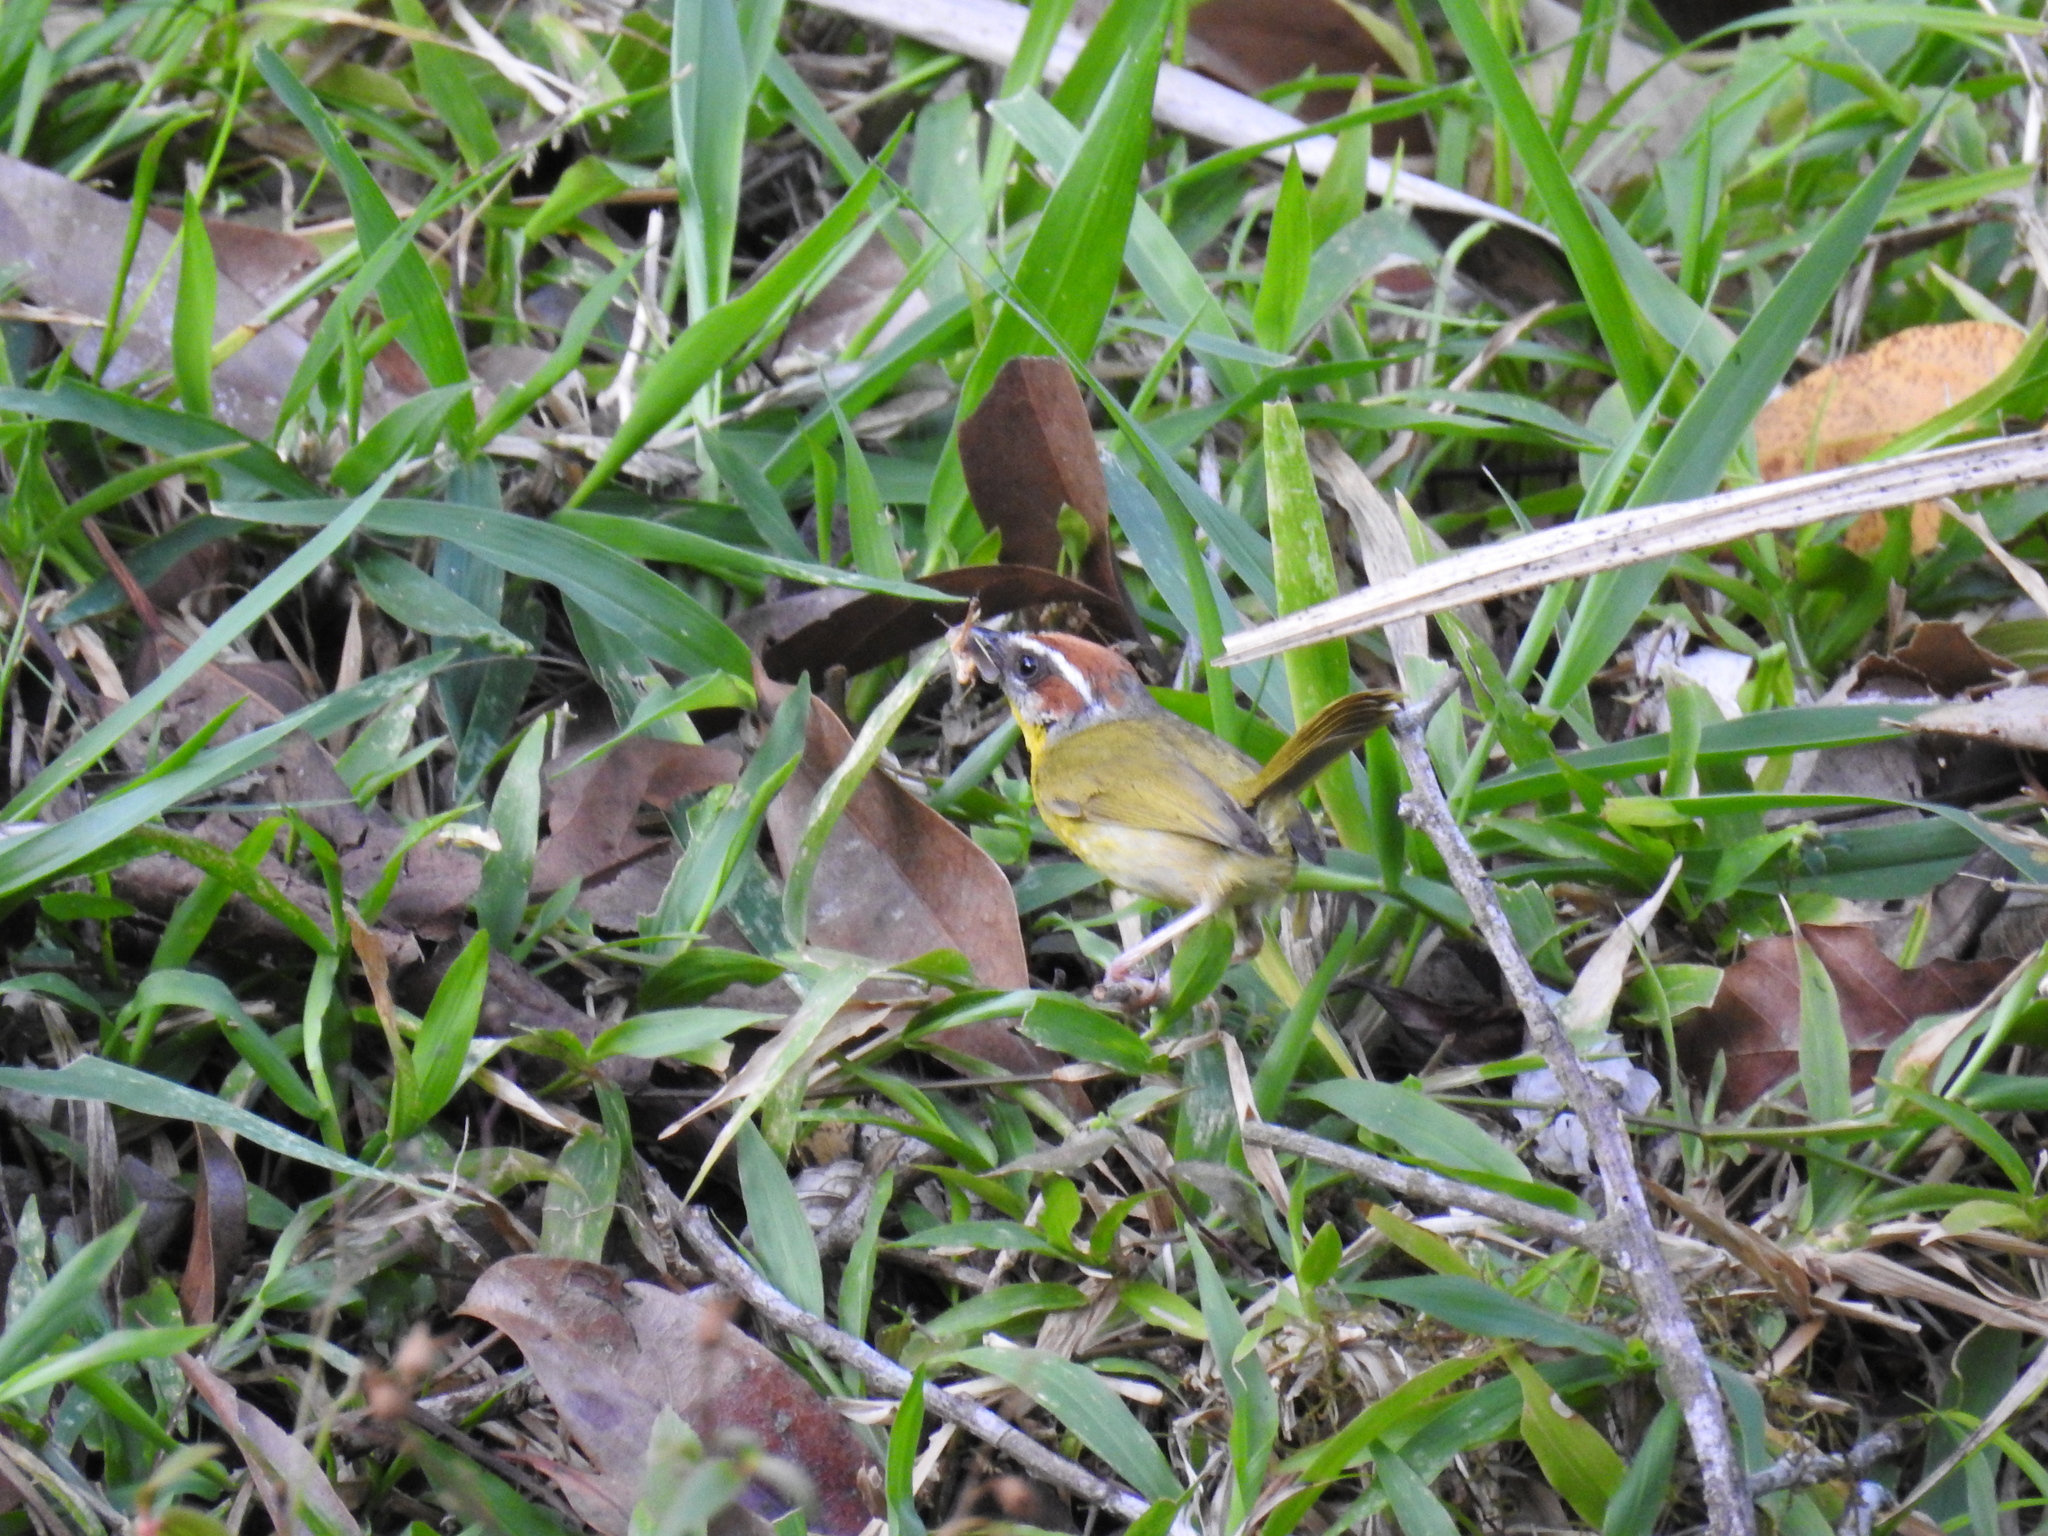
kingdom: Animalia
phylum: Chordata
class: Aves
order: Passeriformes
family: Parulidae
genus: Basileuterus
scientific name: Basileuterus rufifrons
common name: Rufous-capped warbler
